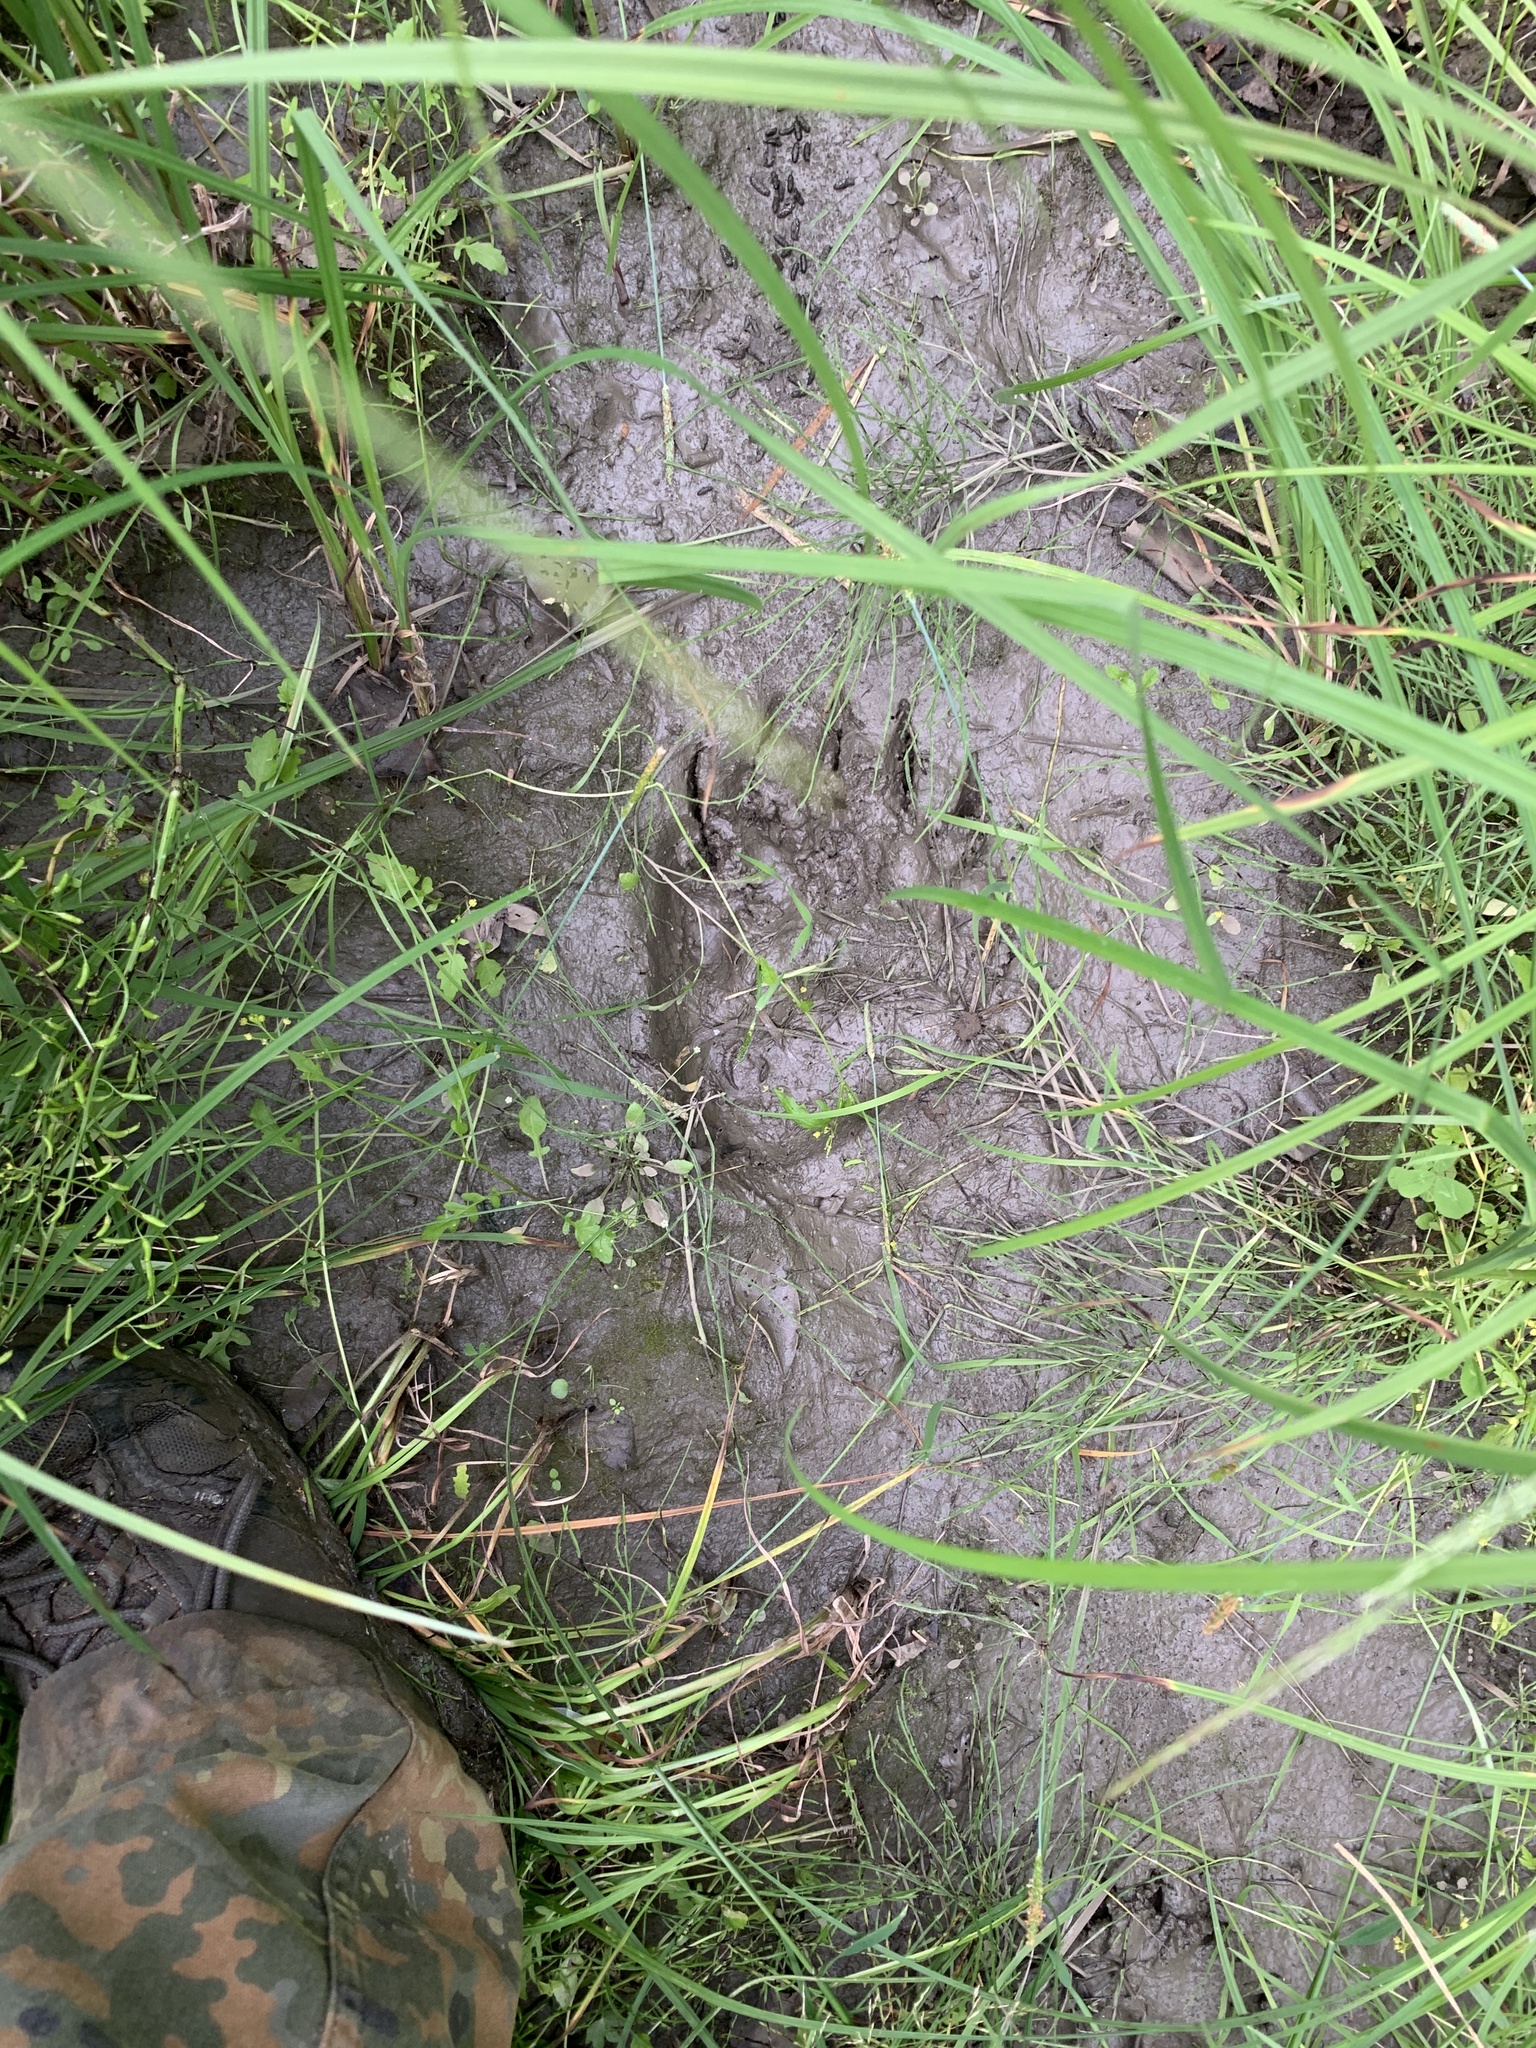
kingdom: Animalia
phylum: Chordata
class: Mammalia
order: Carnivora
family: Ursidae
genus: Ursus
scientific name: Ursus arctos
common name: Brown bear
